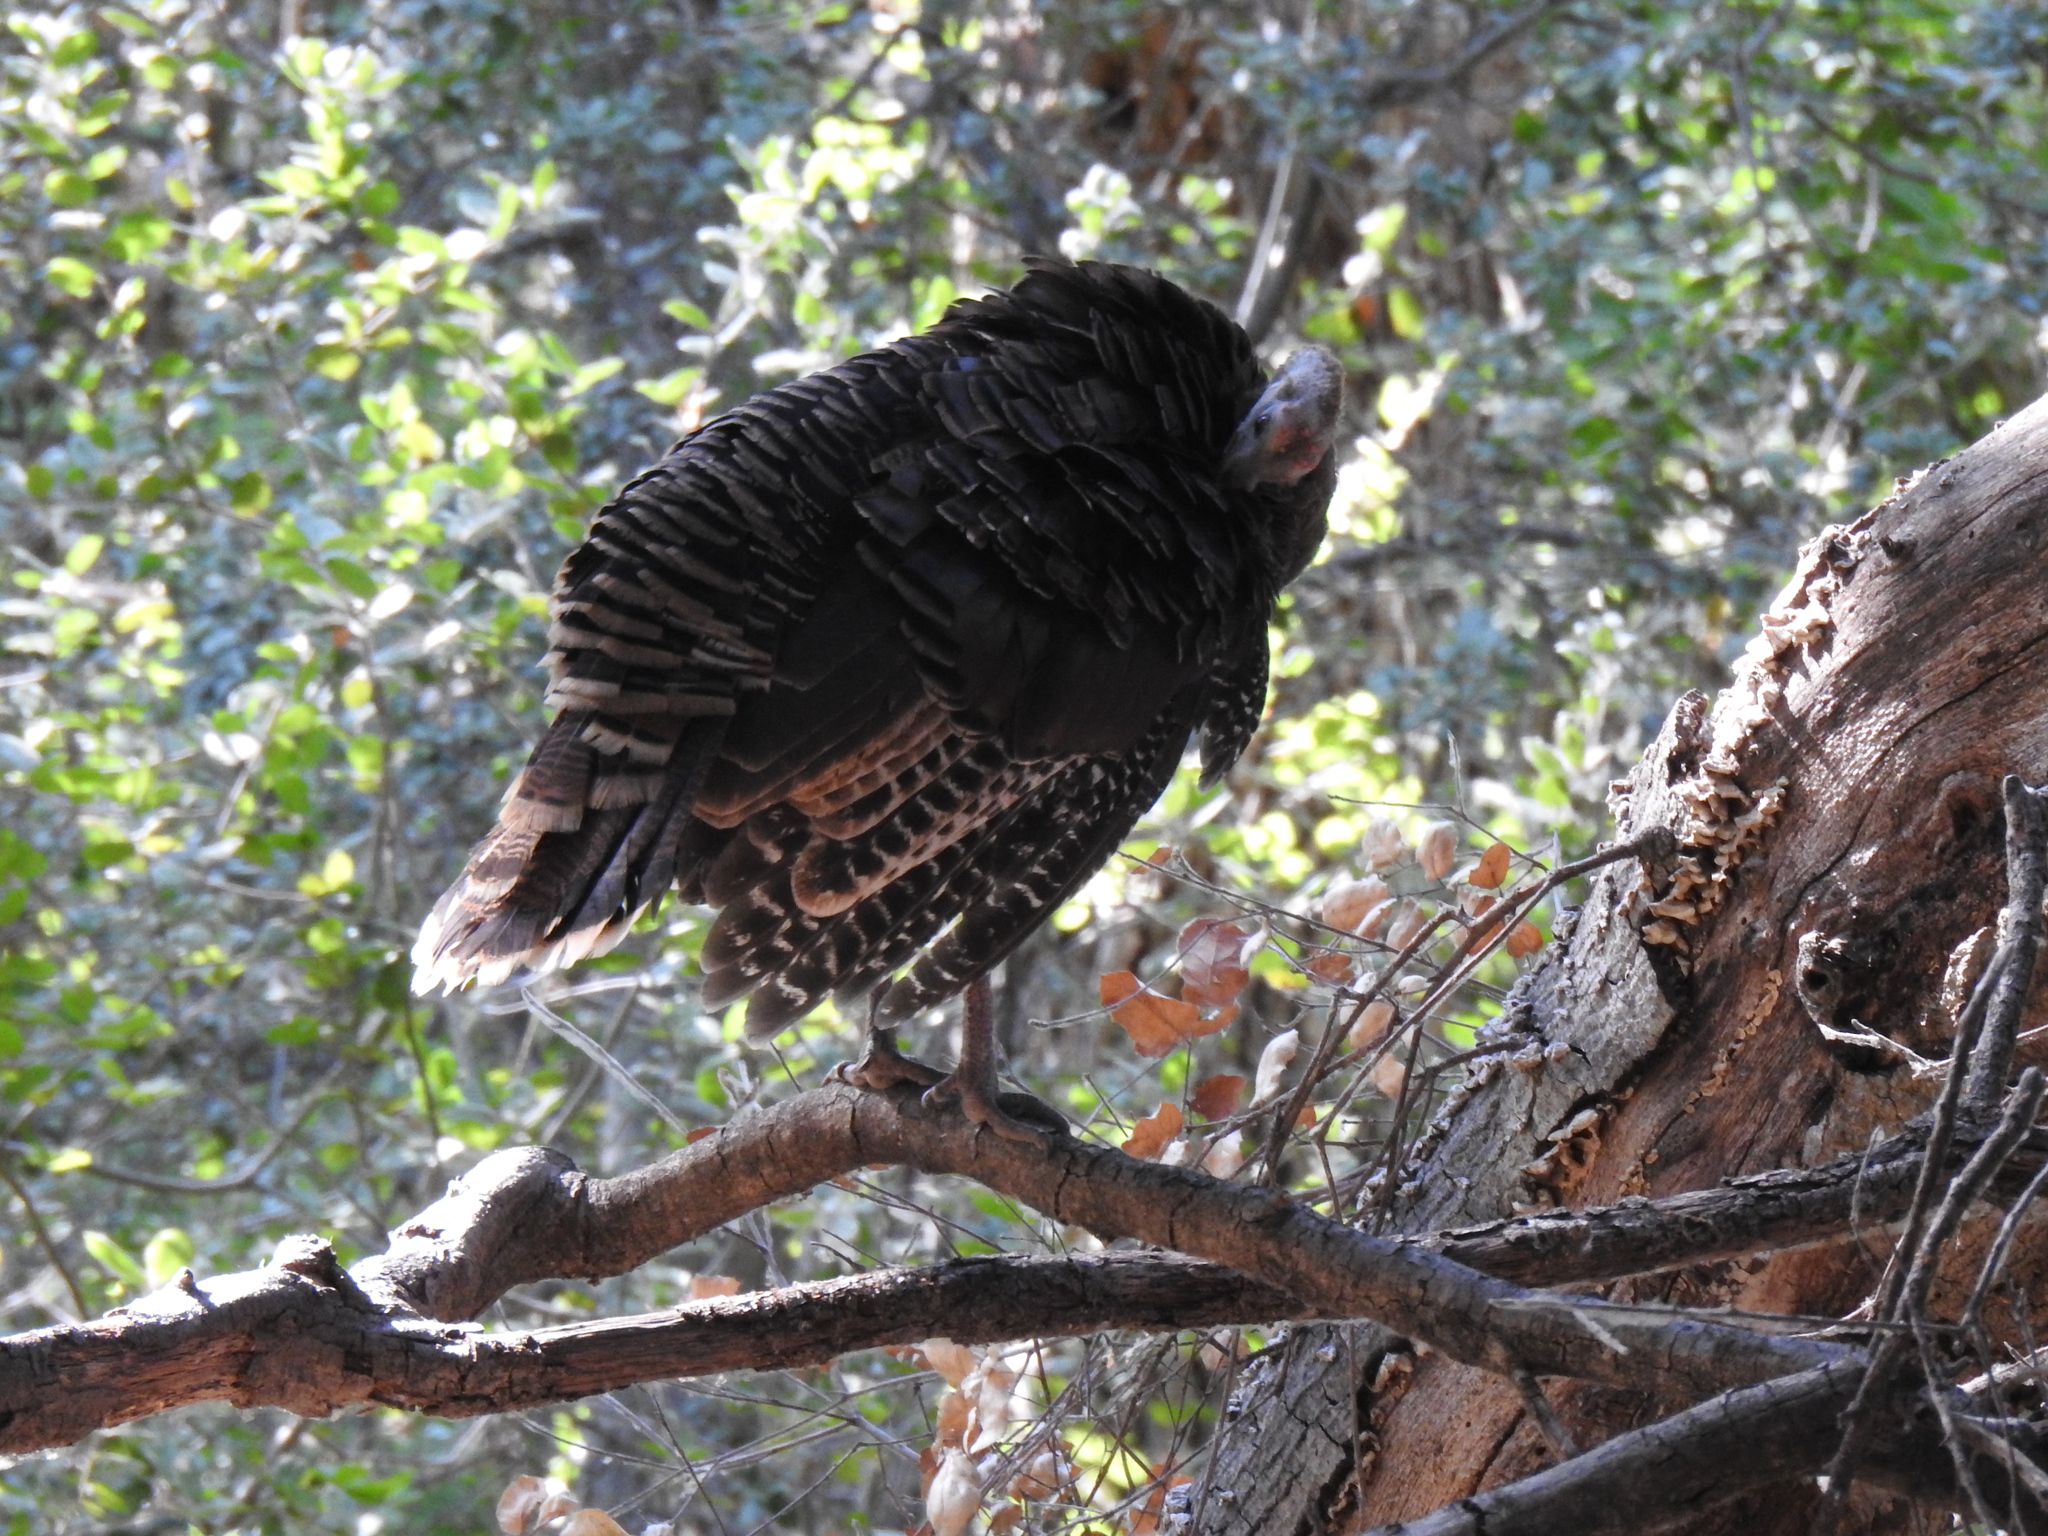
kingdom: Animalia
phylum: Chordata
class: Aves
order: Galliformes
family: Phasianidae
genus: Meleagris
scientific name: Meleagris gallopavo
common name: Wild turkey
